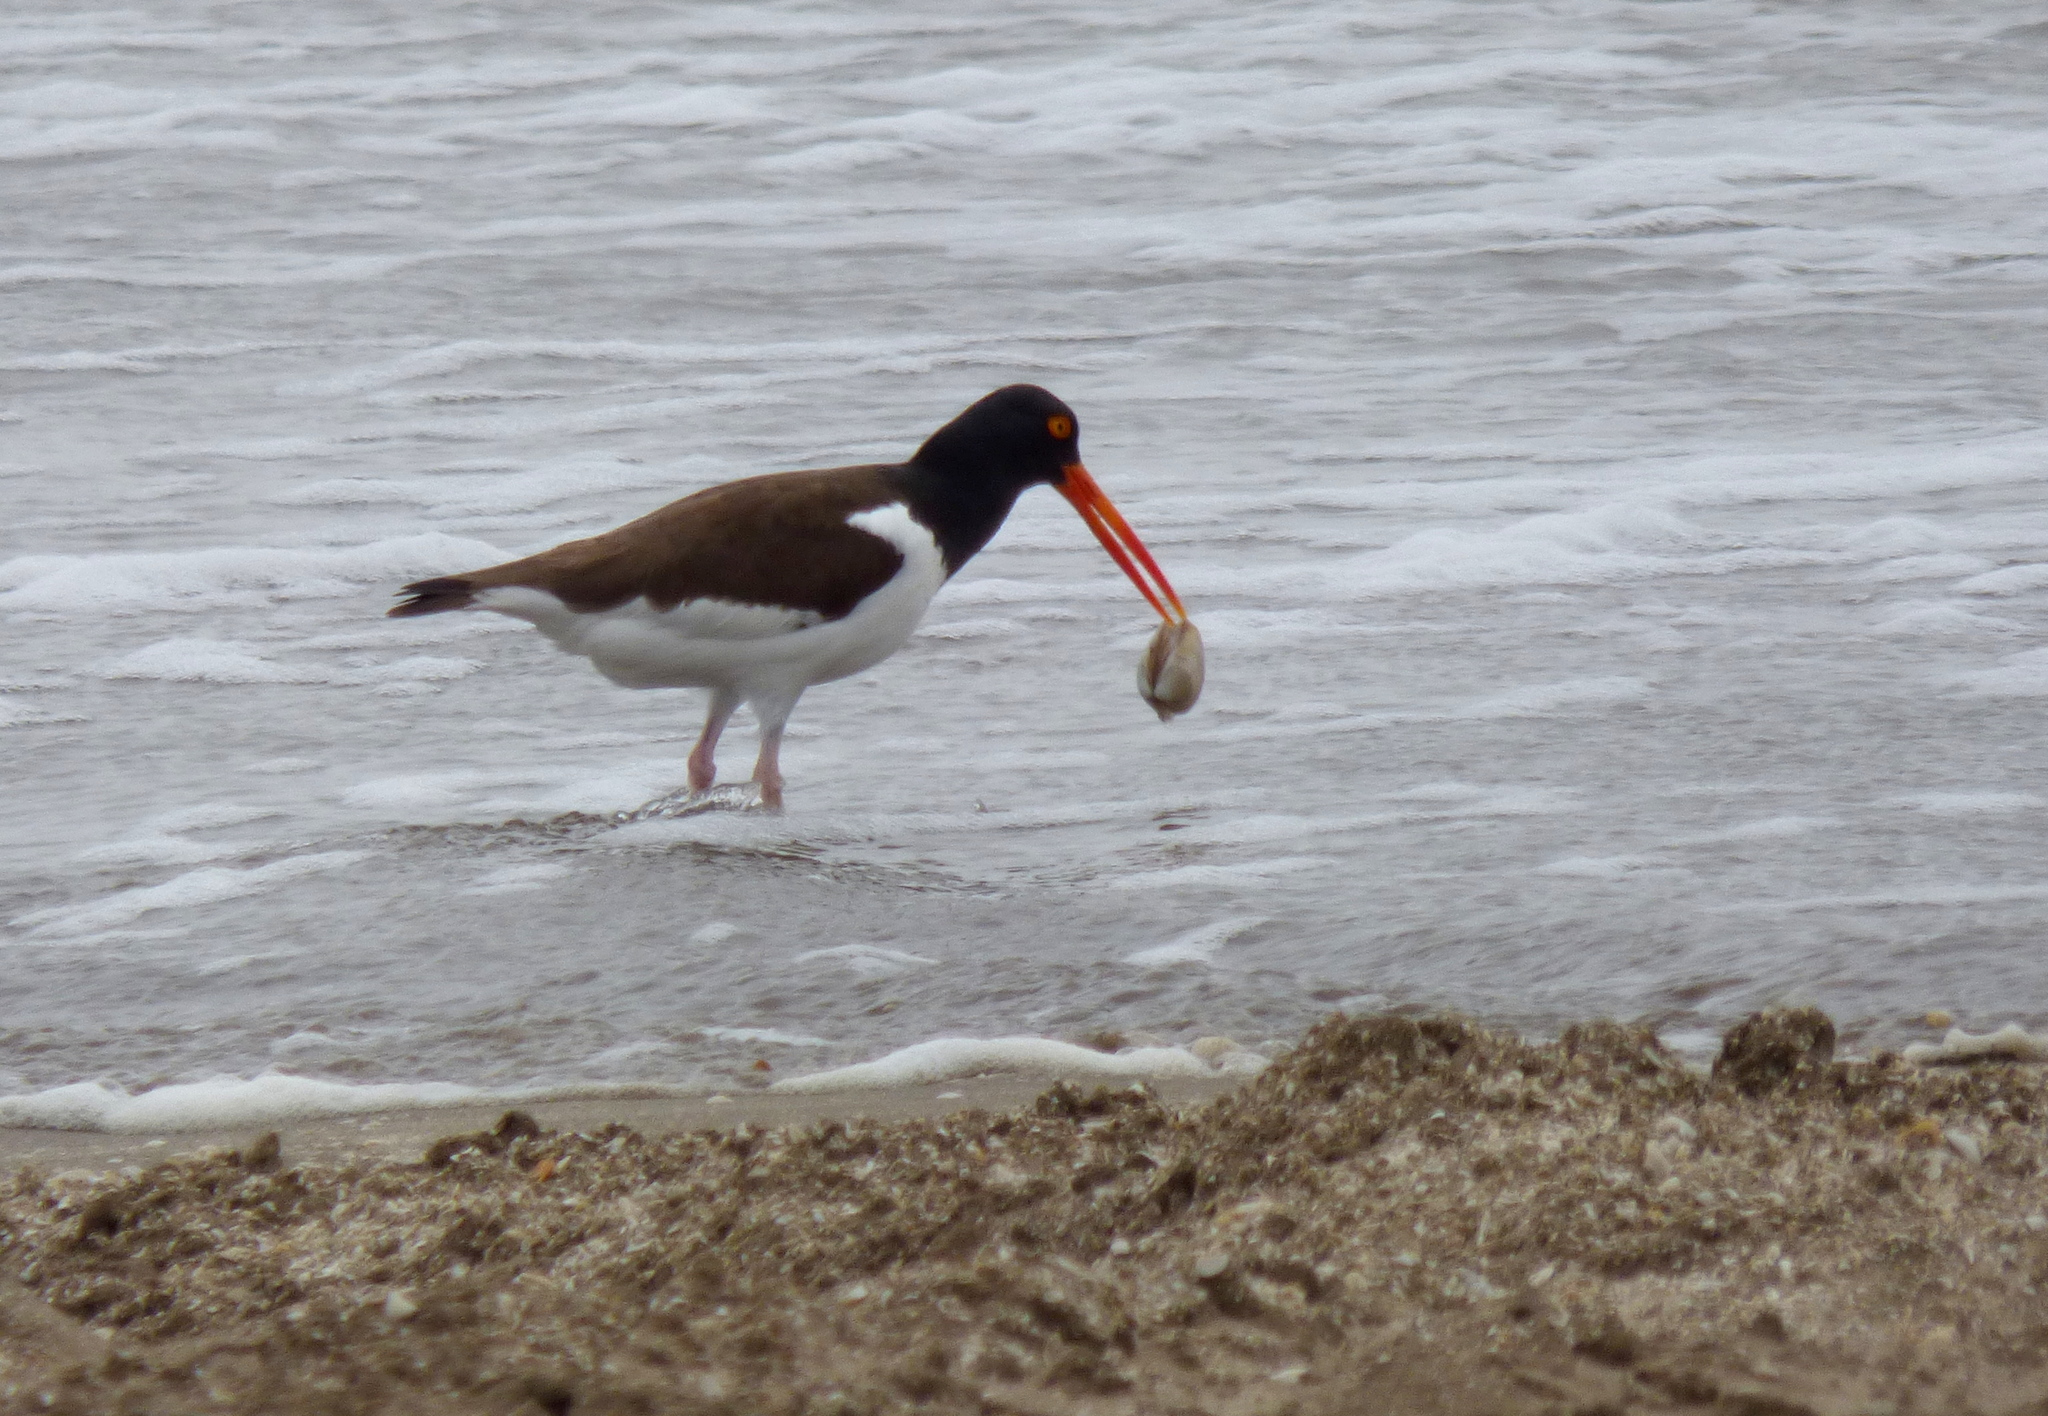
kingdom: Animalia
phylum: Chordata
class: Aves
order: Charadriiformes
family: Haematopodidae
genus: Haematopus
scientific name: Haematopus palliatus
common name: American oystercatcher
